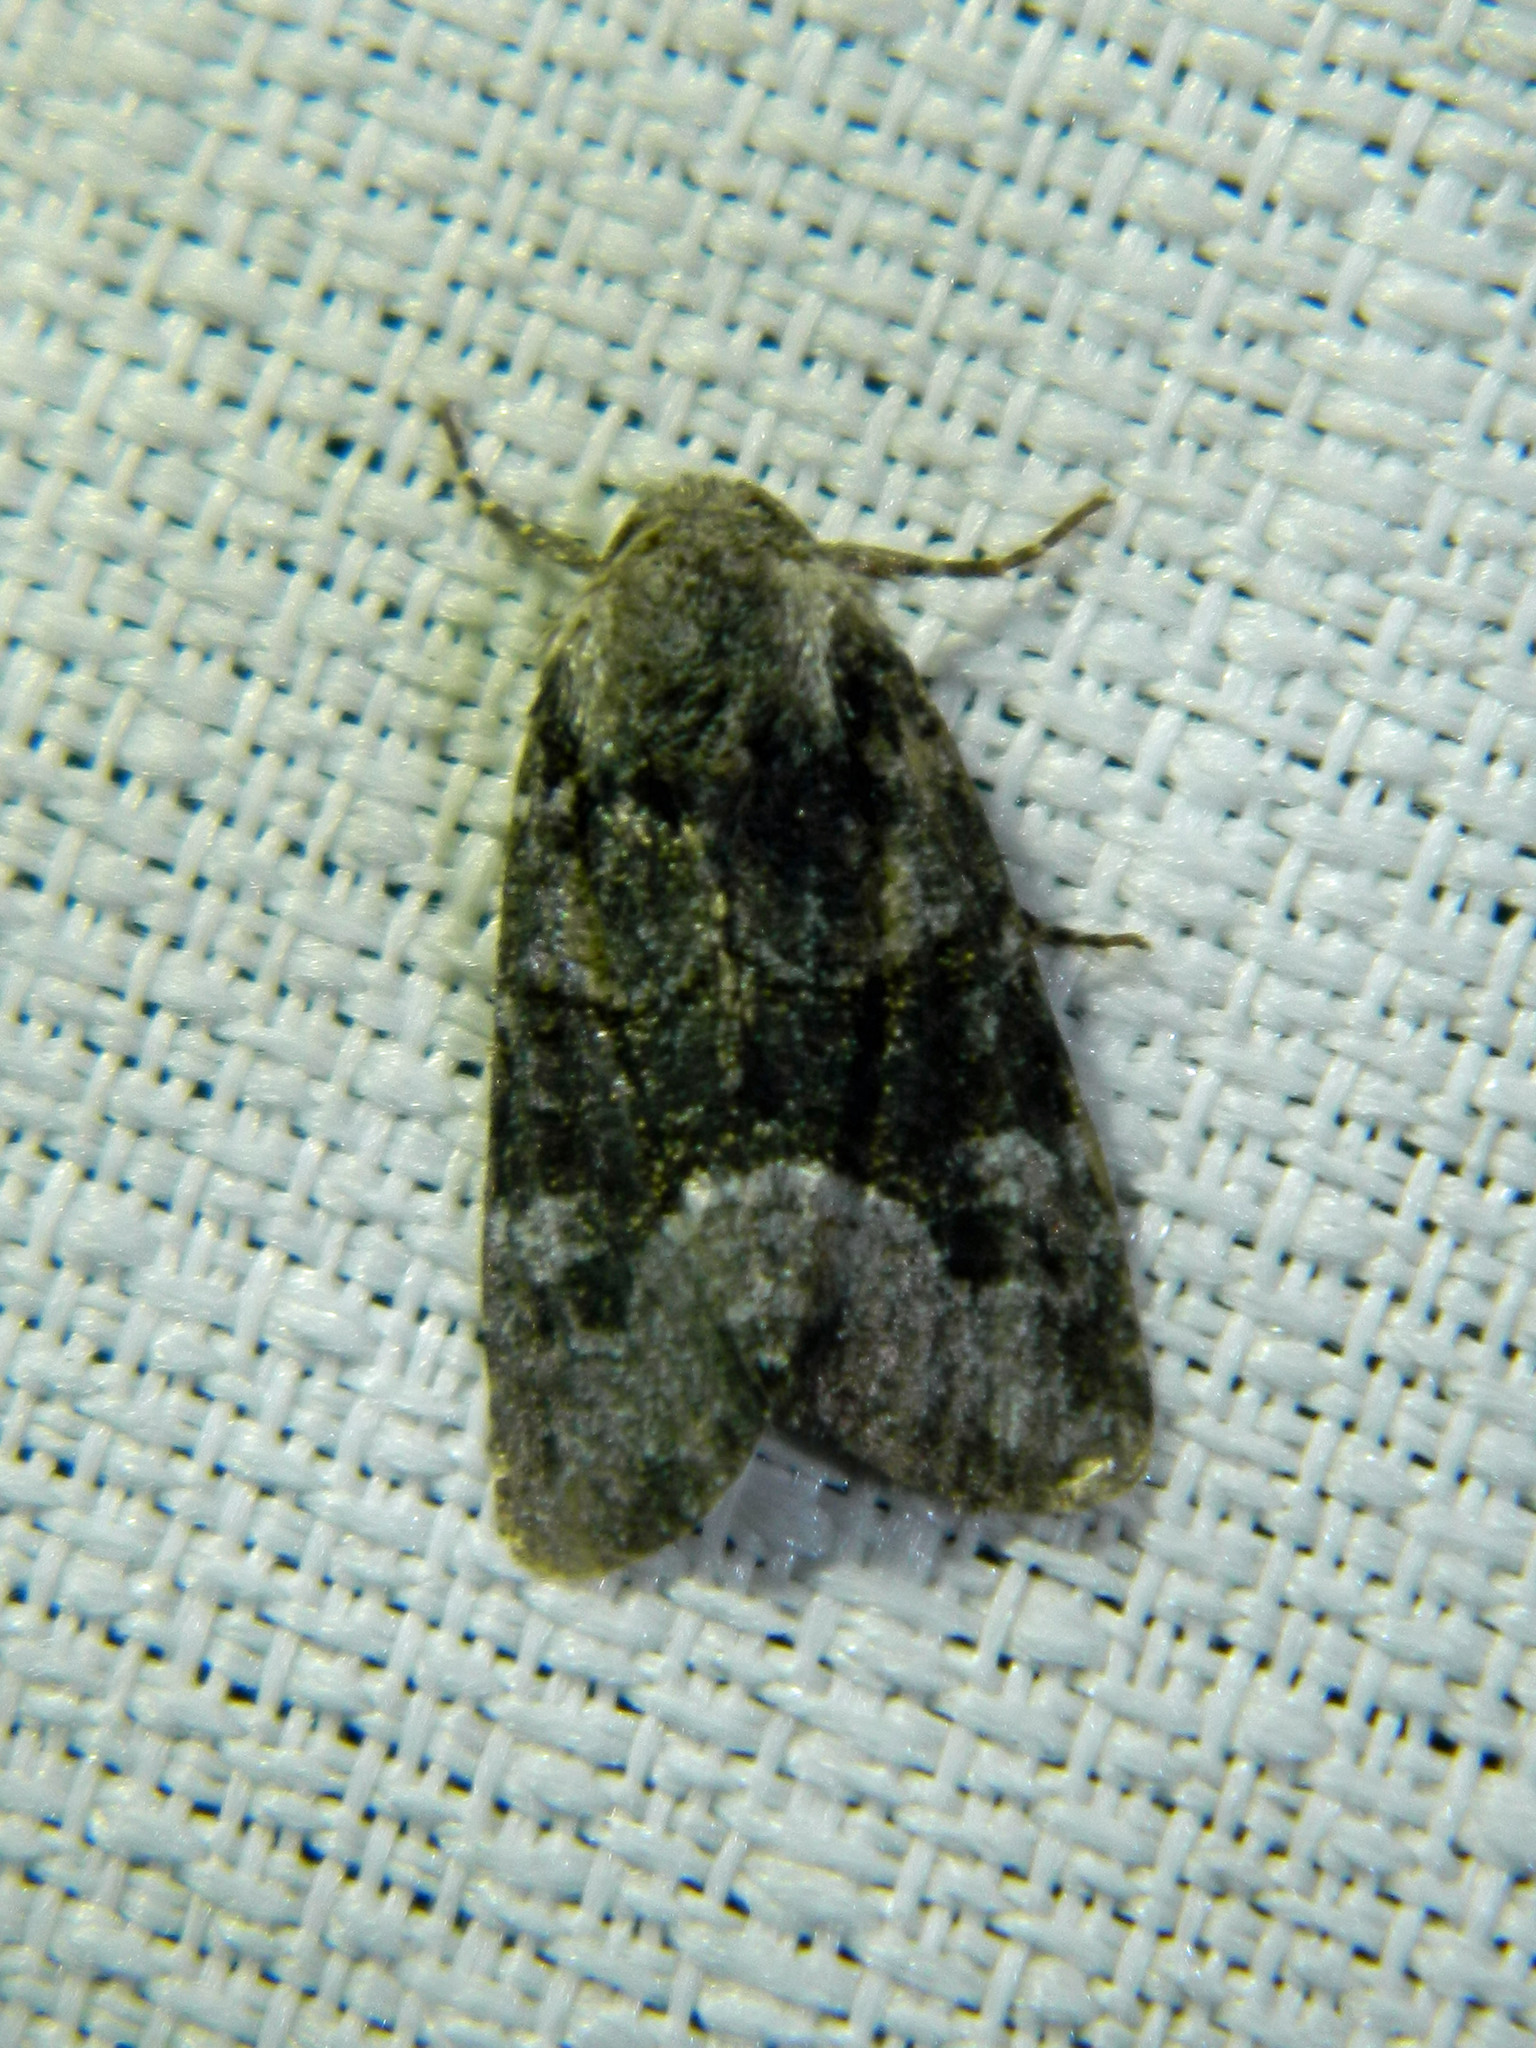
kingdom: Animalia
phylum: Arthropoda
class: Insecta
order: Lepidoptera
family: Noctuidae
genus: Lacinipolia
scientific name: Lacinipolia olivacea
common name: Olive arches moth
